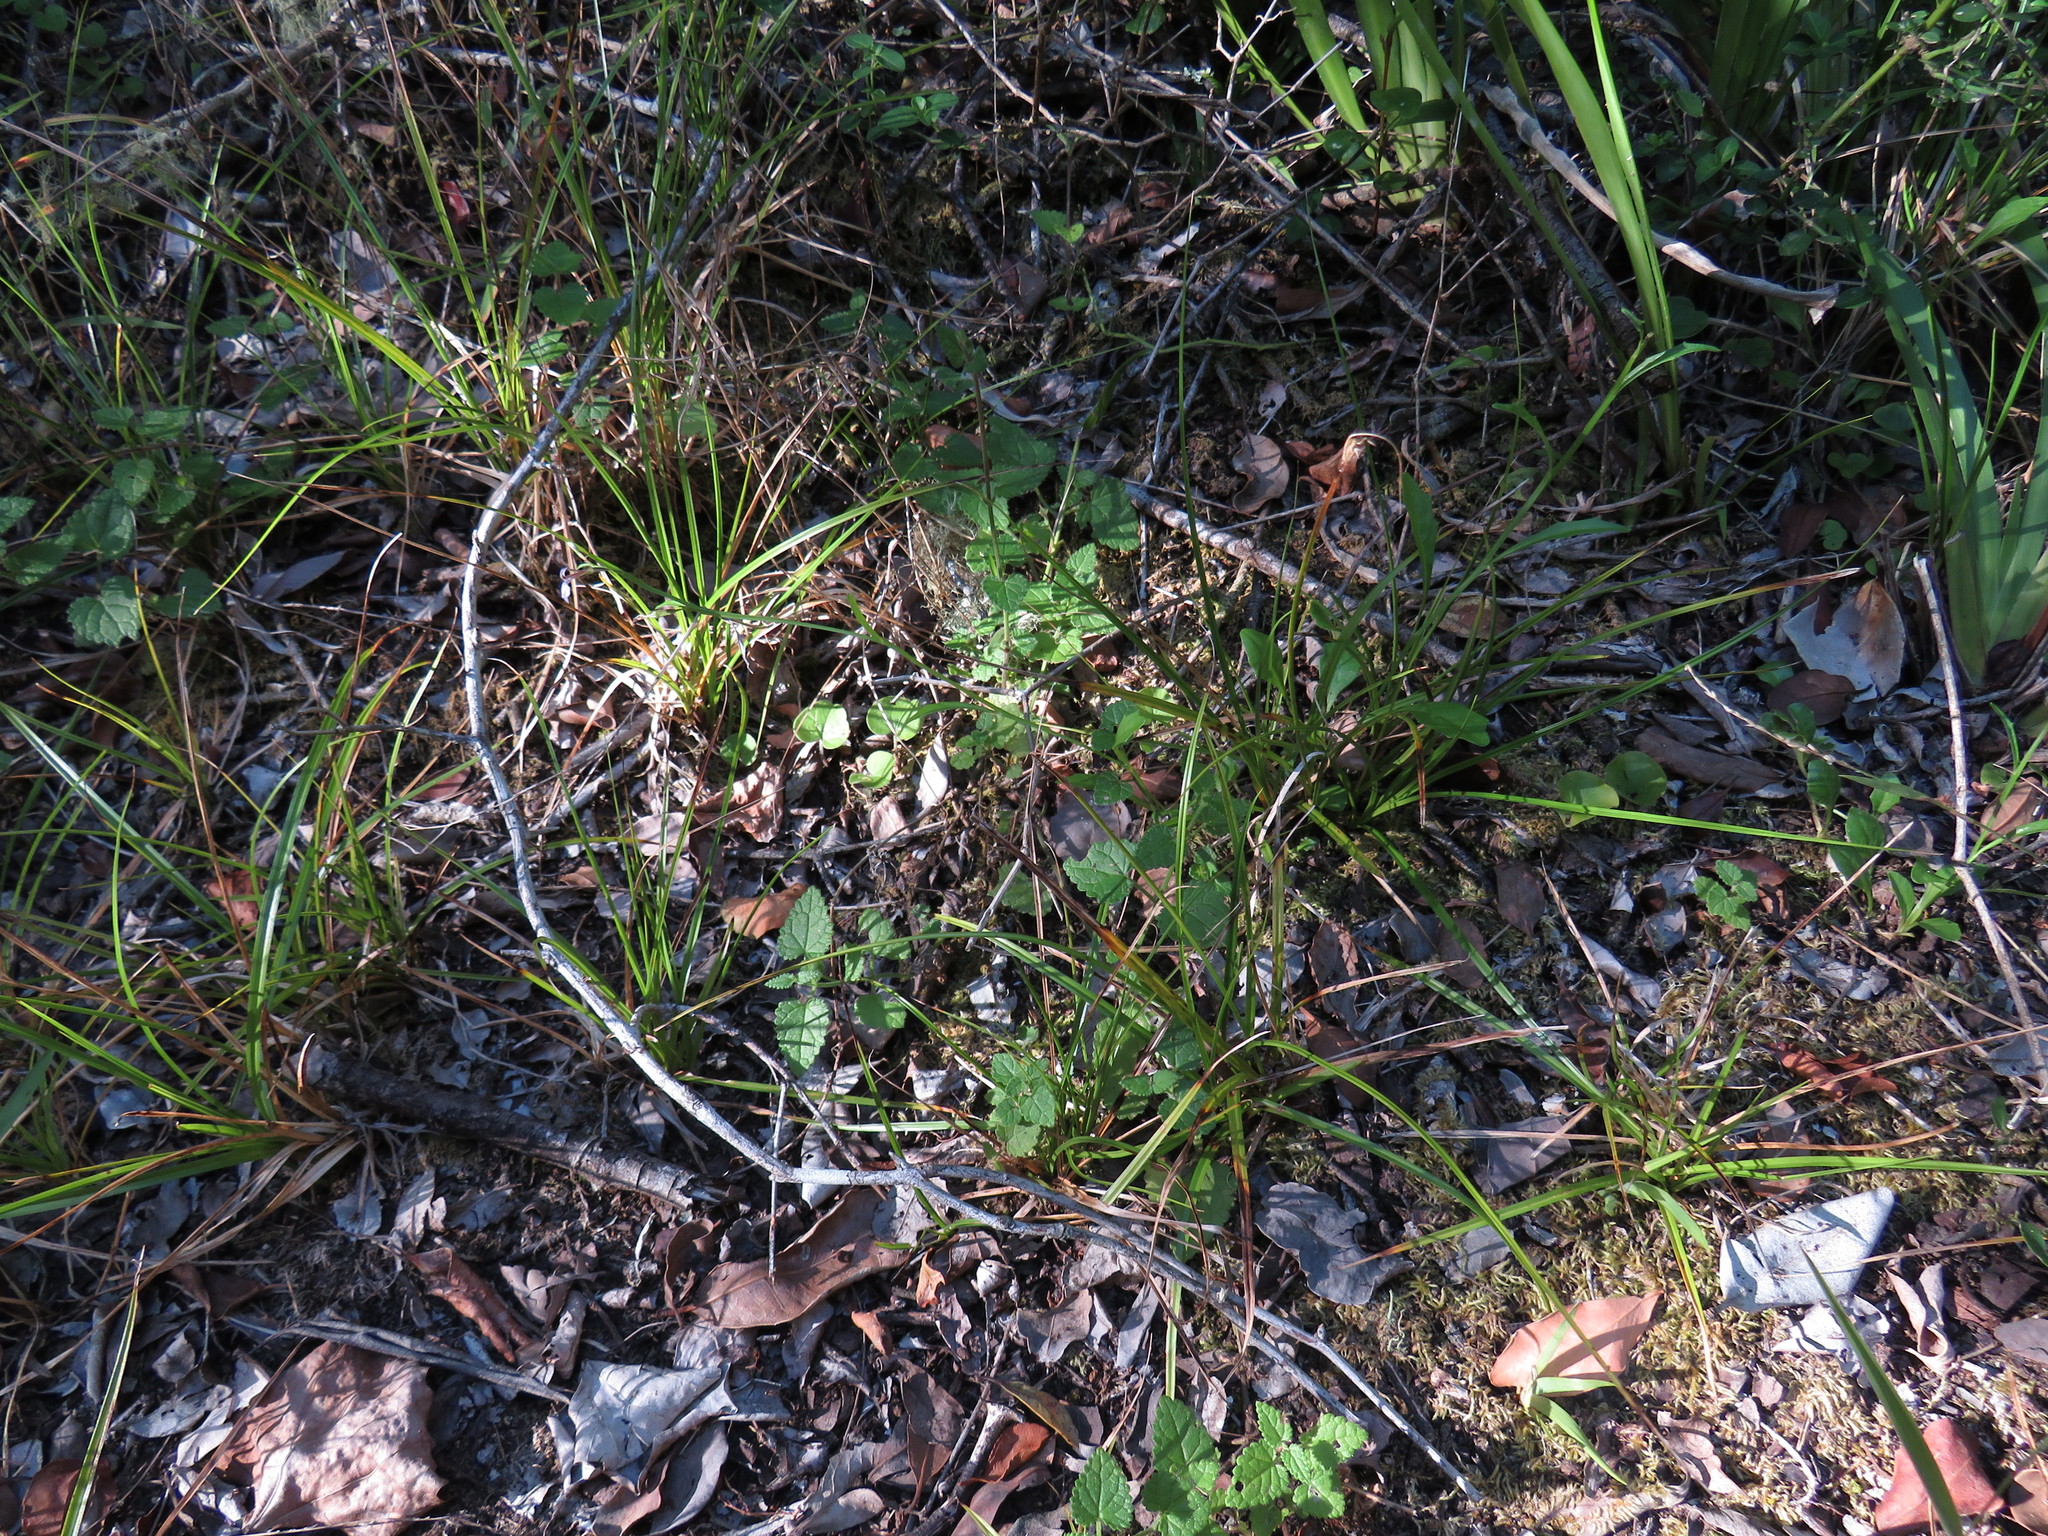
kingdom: Plantae
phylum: Tracheophyta
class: Magnoliopsida
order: Asterales
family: Campanulaceae
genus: Lobelia
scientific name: Lobelia anceps
